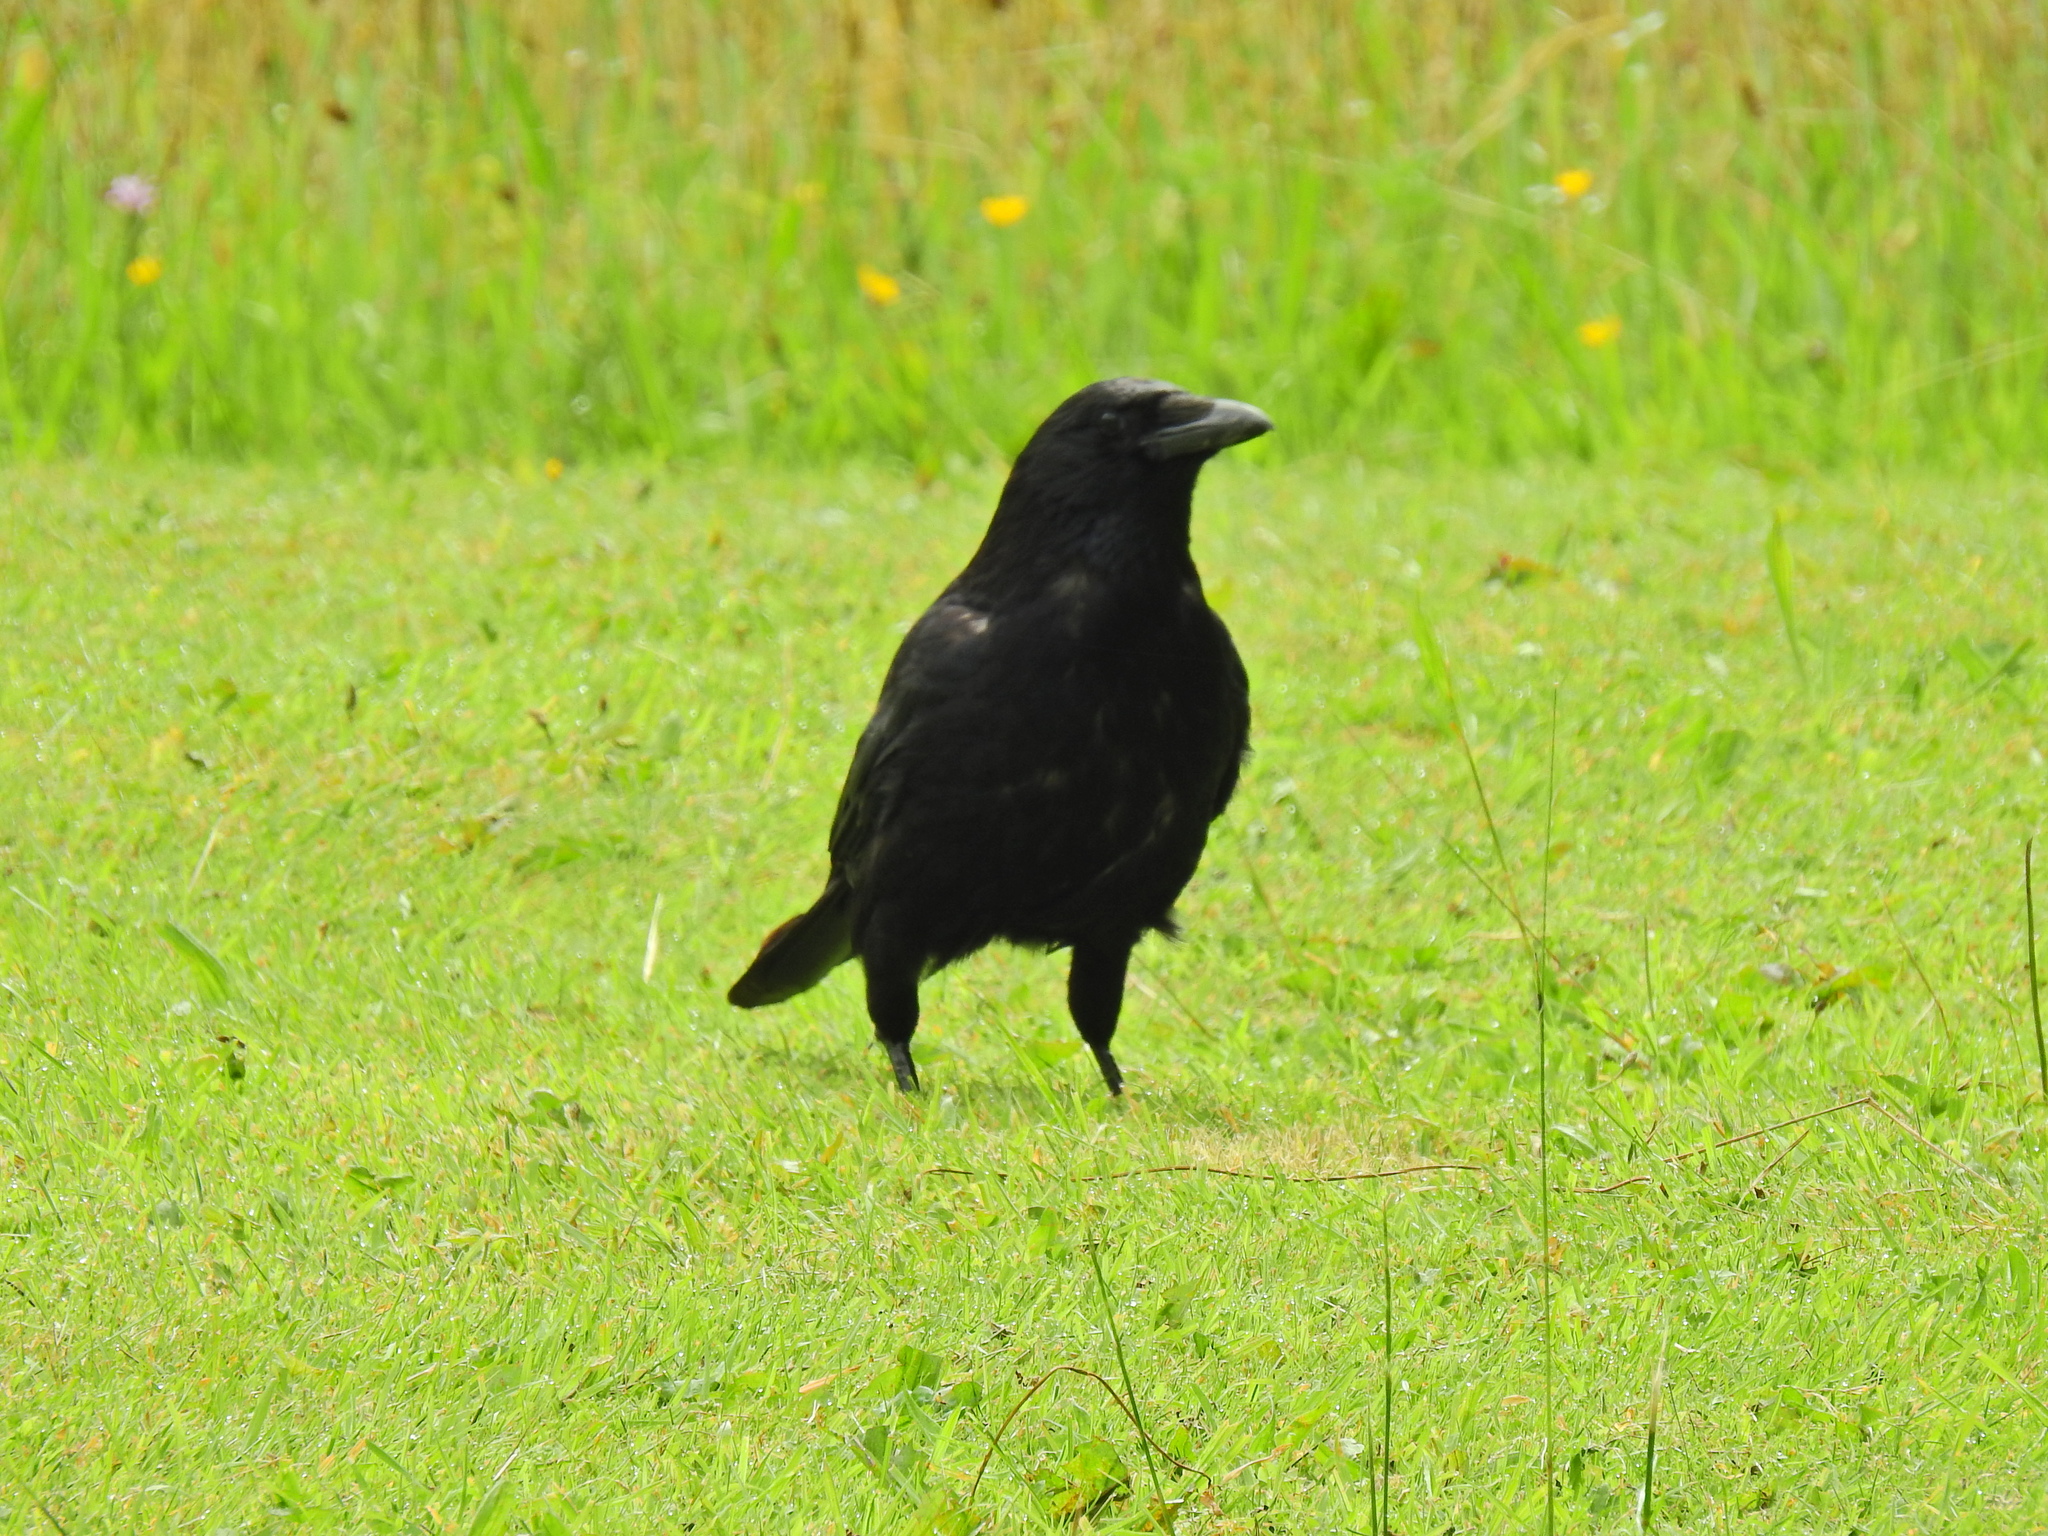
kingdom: Animalia
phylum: Chordata
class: Aves
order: Passeriformes
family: Corvidae
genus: Corvus
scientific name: Corvus corone
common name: Carrion crow
